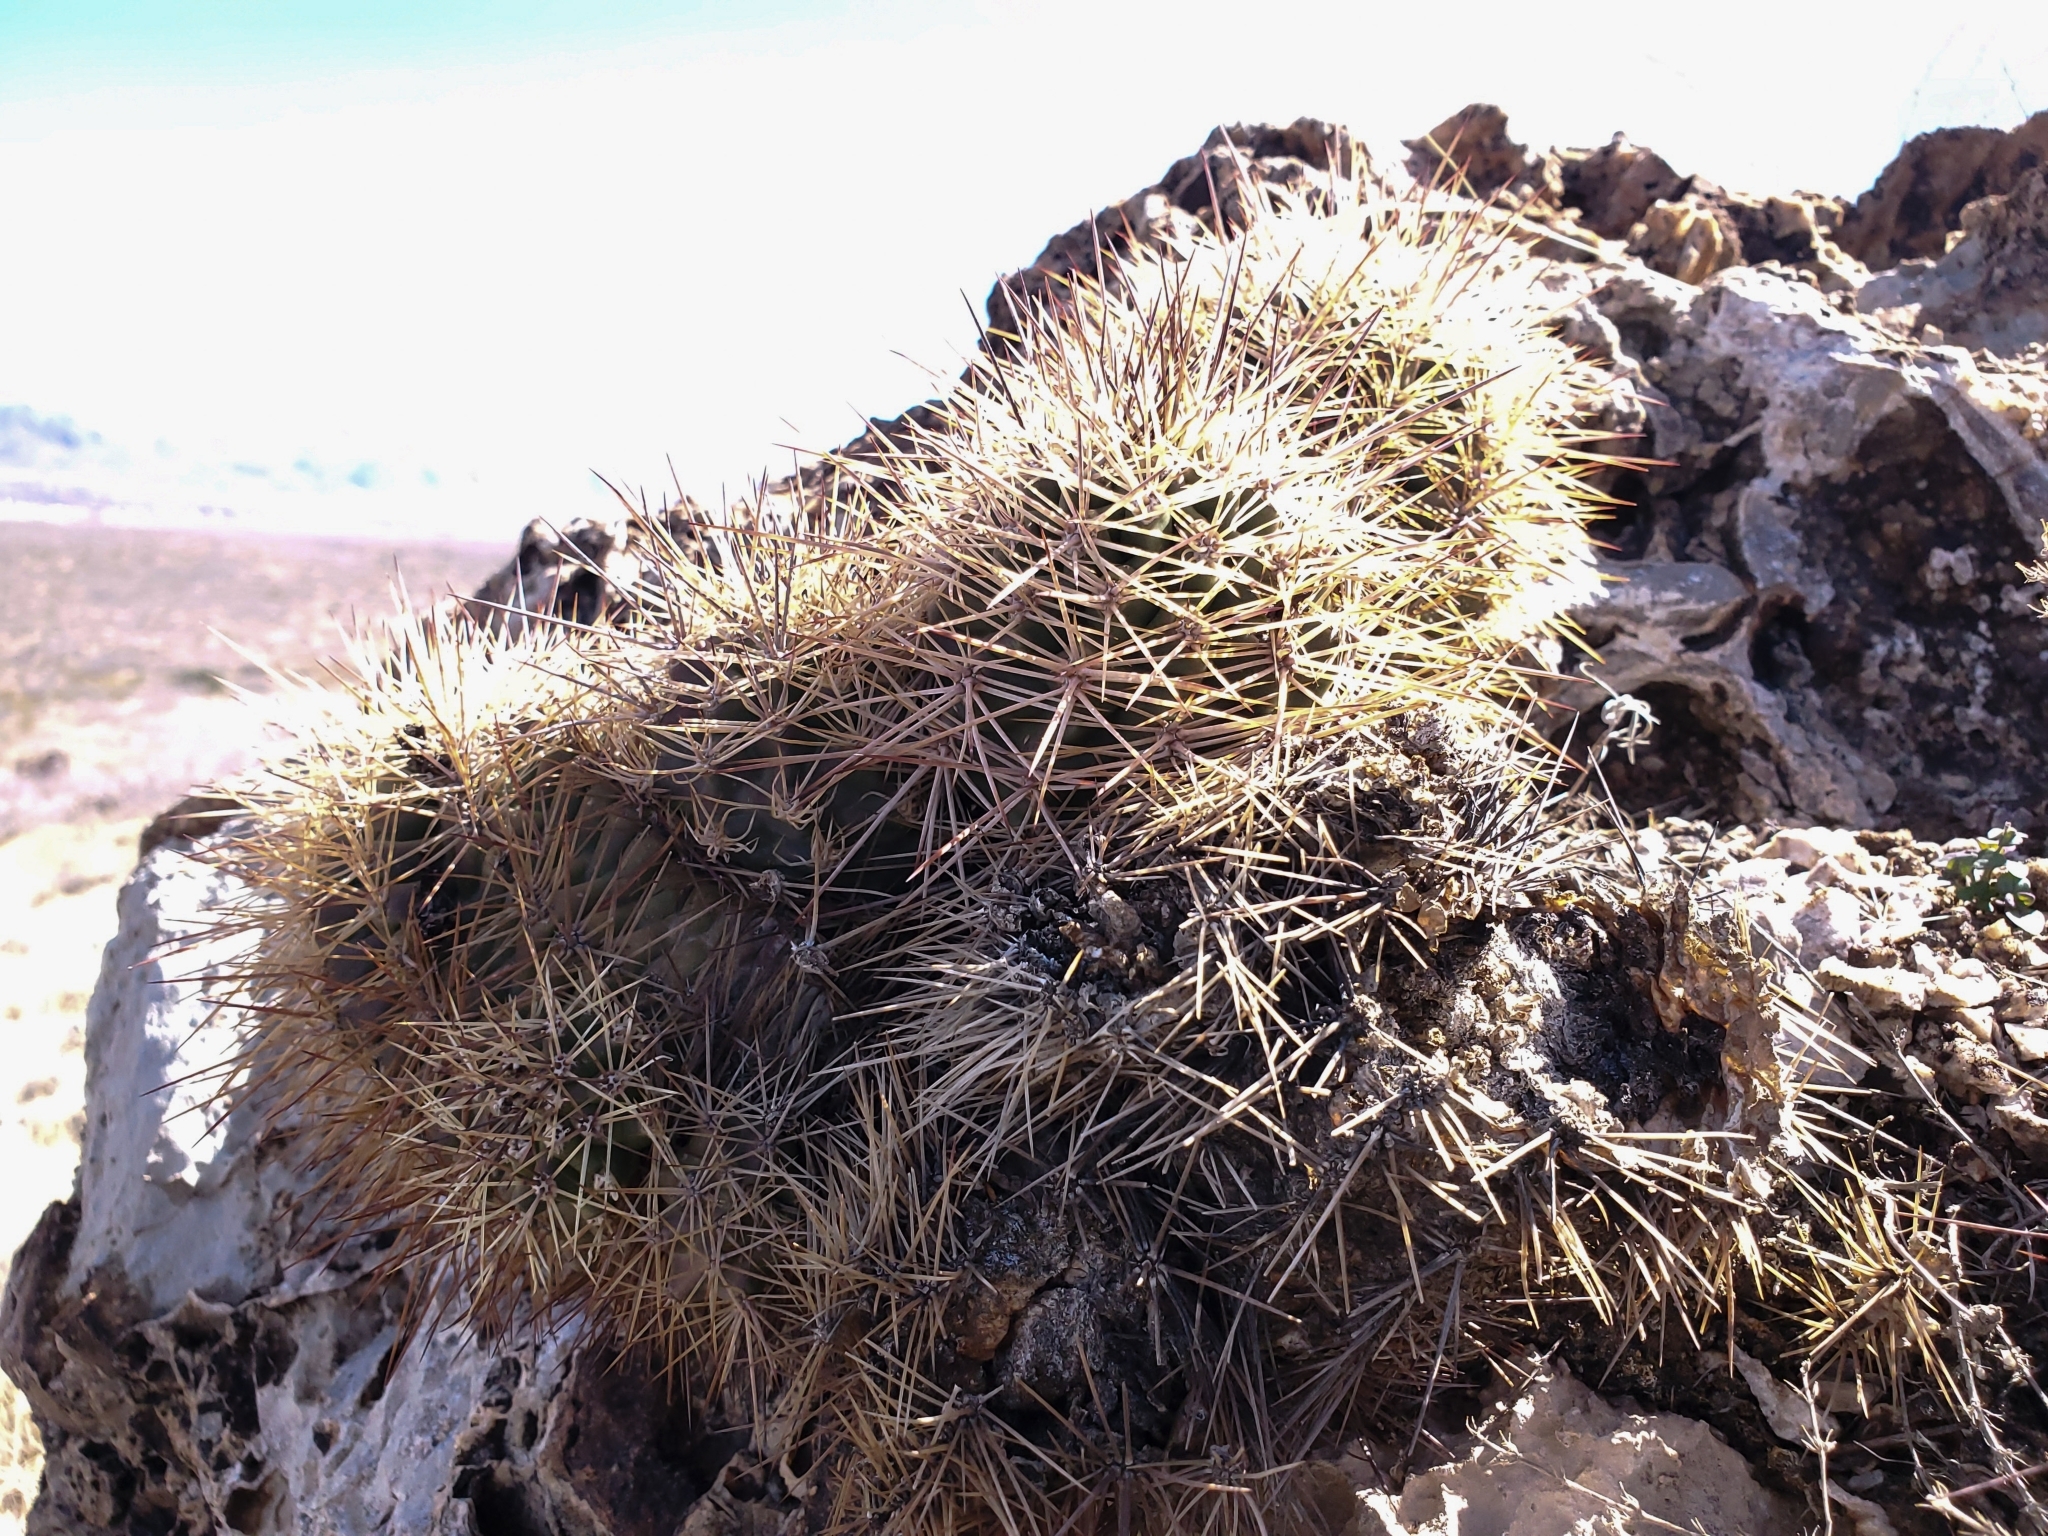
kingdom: Plantae
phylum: Tracheophyta
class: Magnoliopsida
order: Caryophyllales
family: Cactaceae
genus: Echinocereus
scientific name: Echinocereus coccineus
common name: Scarlet hedgehog cactus
